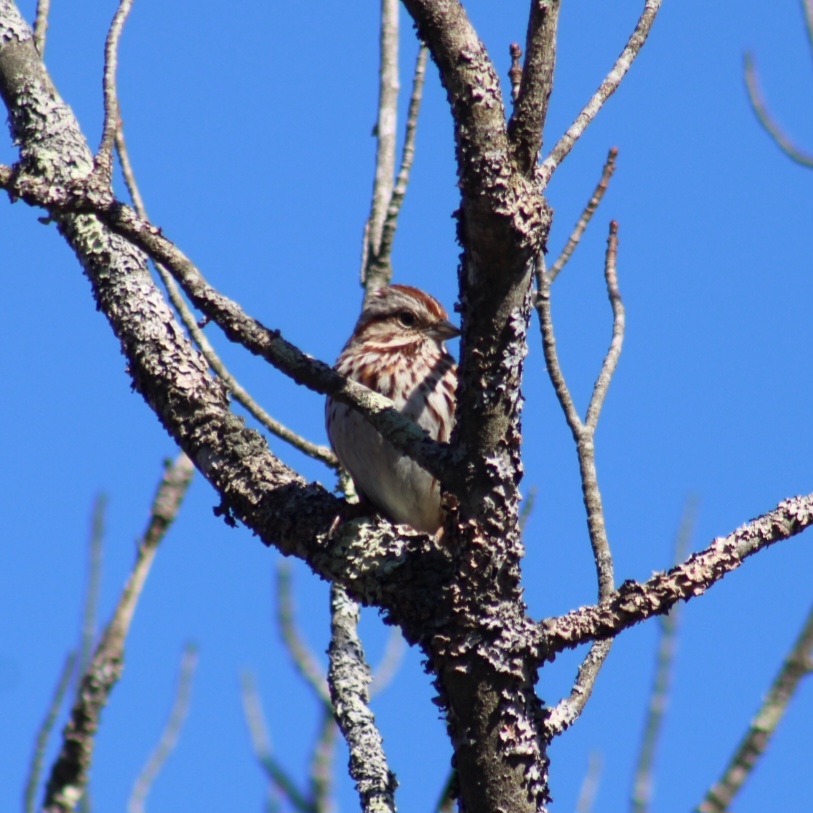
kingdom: Animalia
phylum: Chordata
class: Aves
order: Passeriformes
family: Passerellidae
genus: Melospiza
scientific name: Melospiza melodia
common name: Song sparrow
